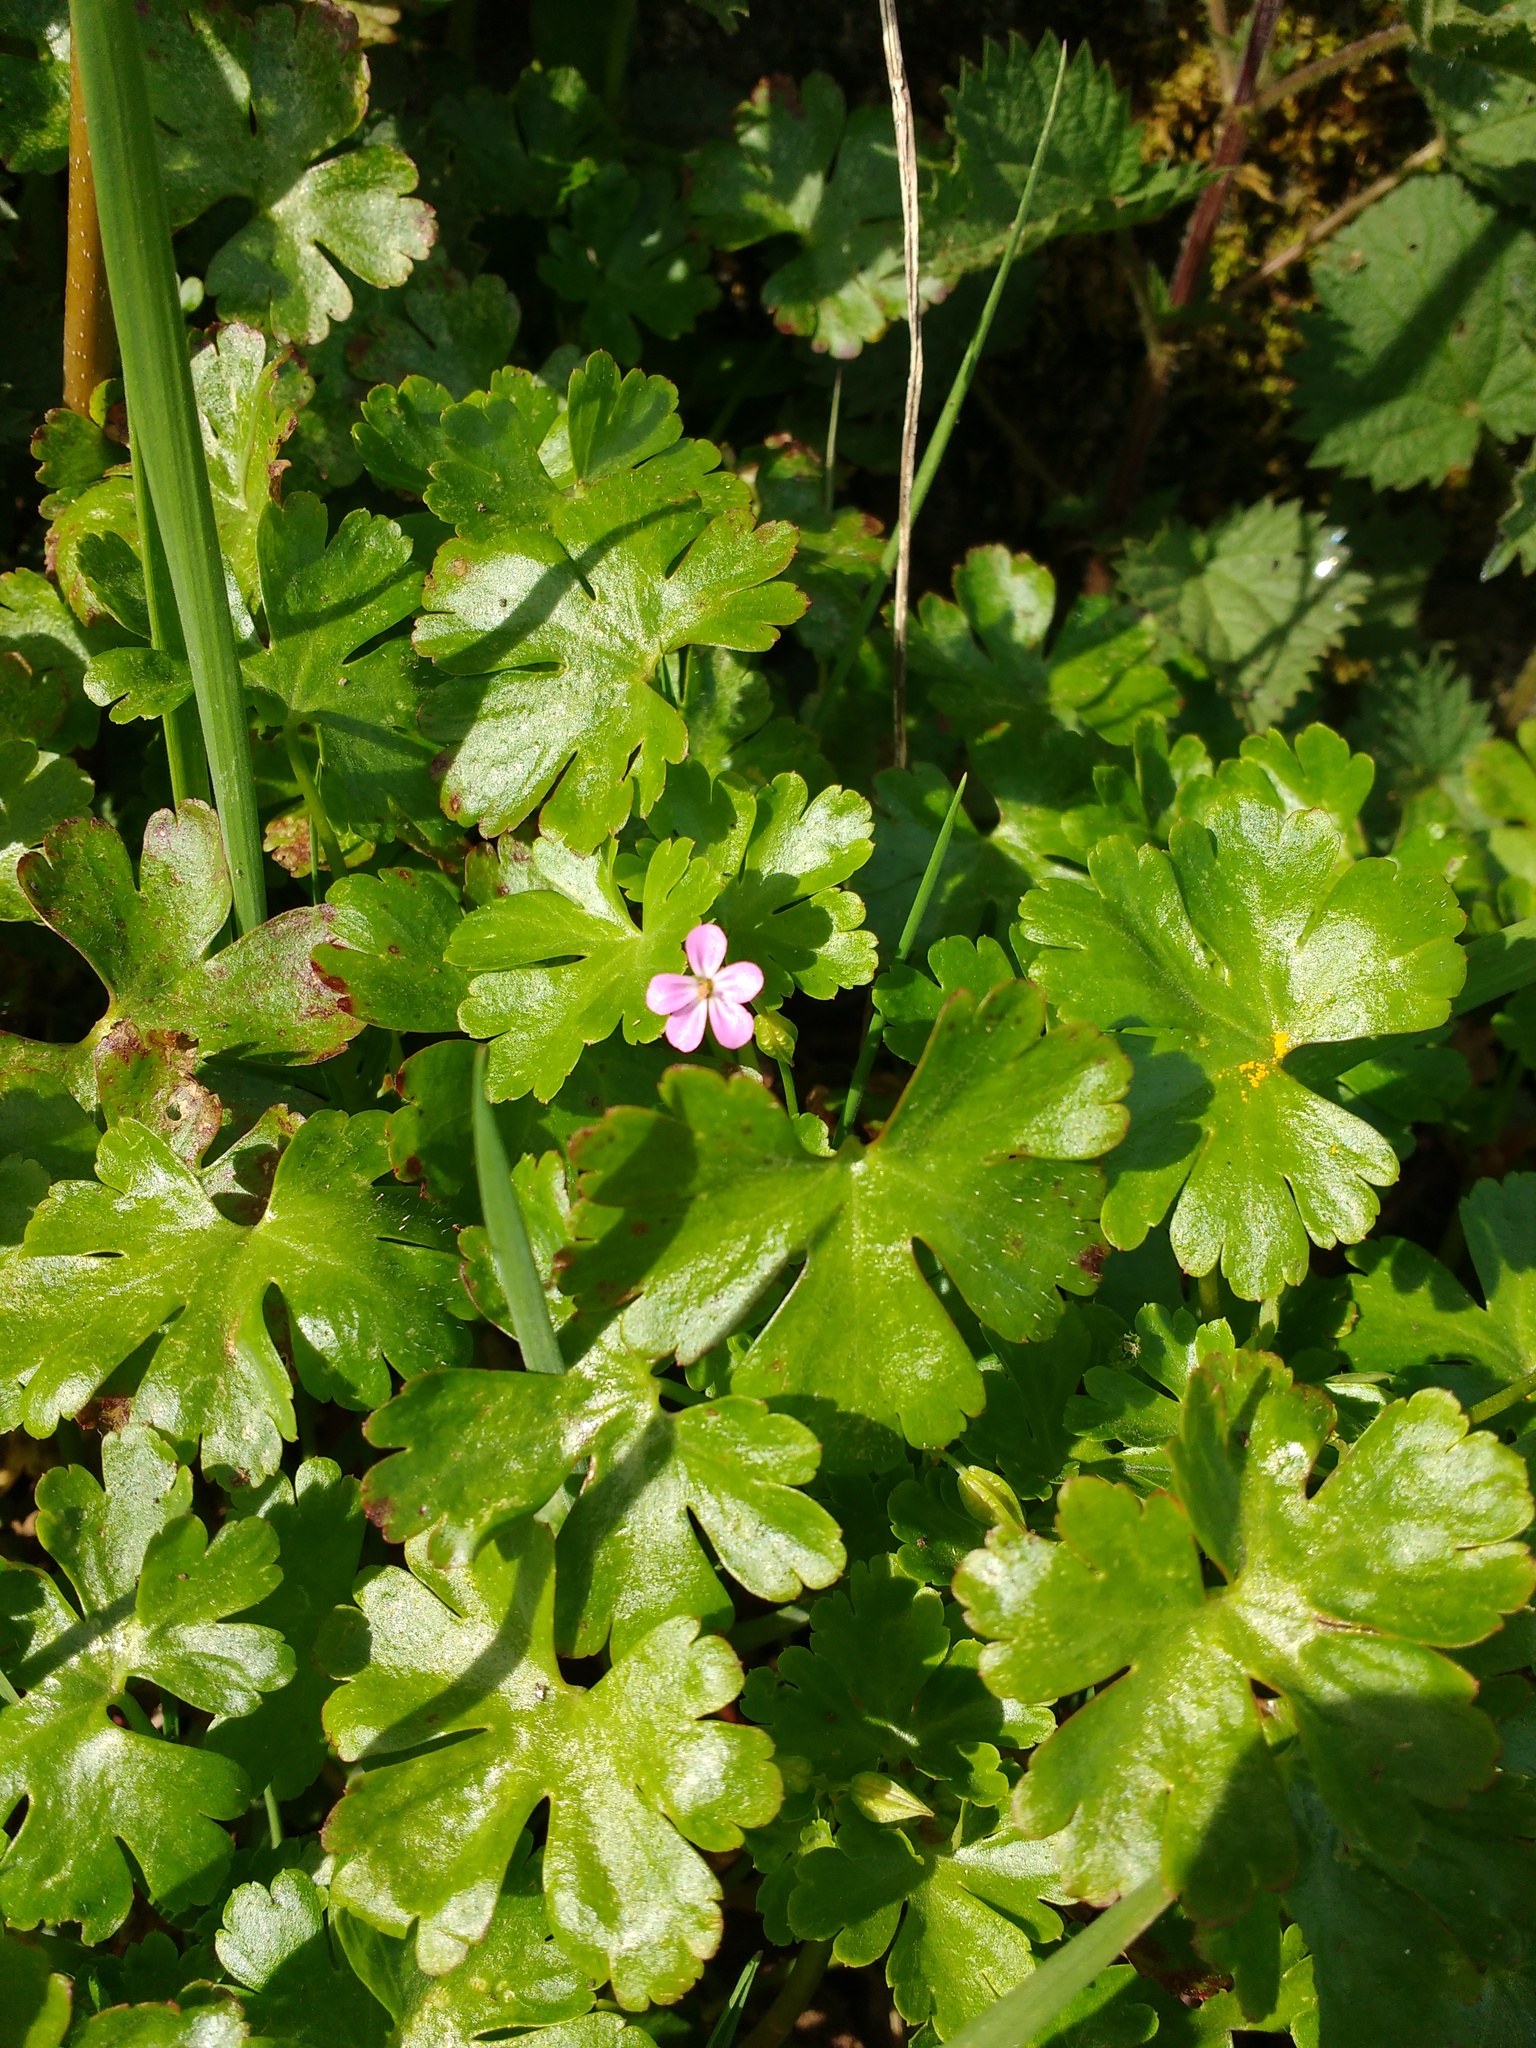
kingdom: Plantae
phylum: Tracheophyta
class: Magnoliopsida
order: Geraniales
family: Geraniaceae
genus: Geranium
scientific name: Geranium lucidum
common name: Shining crane's-bill
